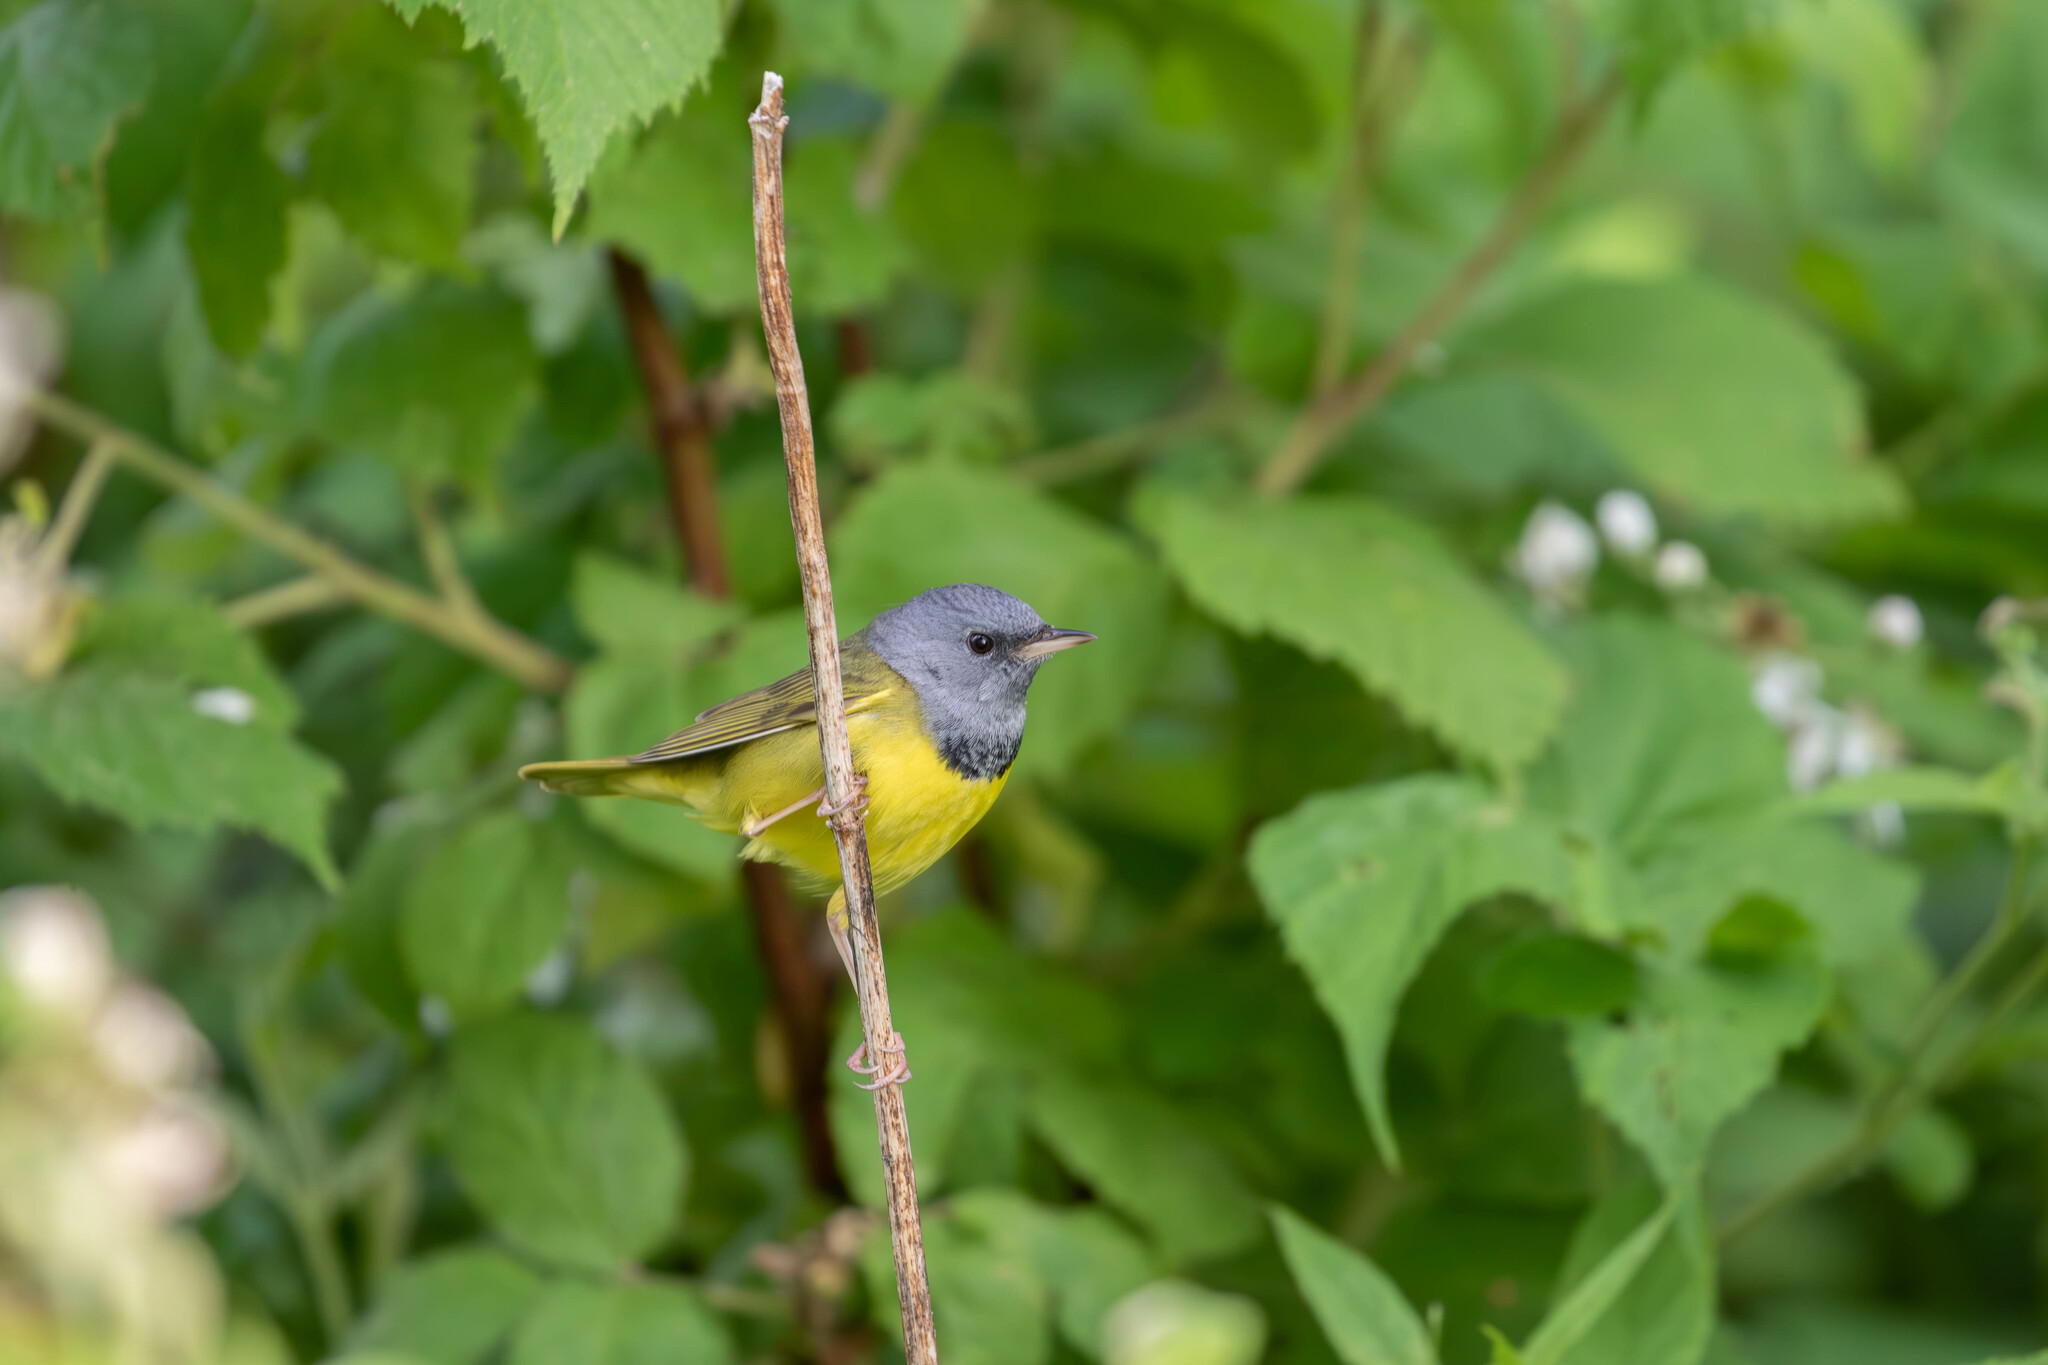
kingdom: Animalia
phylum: Chordata
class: Aves
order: Passeriformes
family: Parulidae
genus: Geothlypis
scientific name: Geothlypis philadelphia
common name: Mourning warbler
